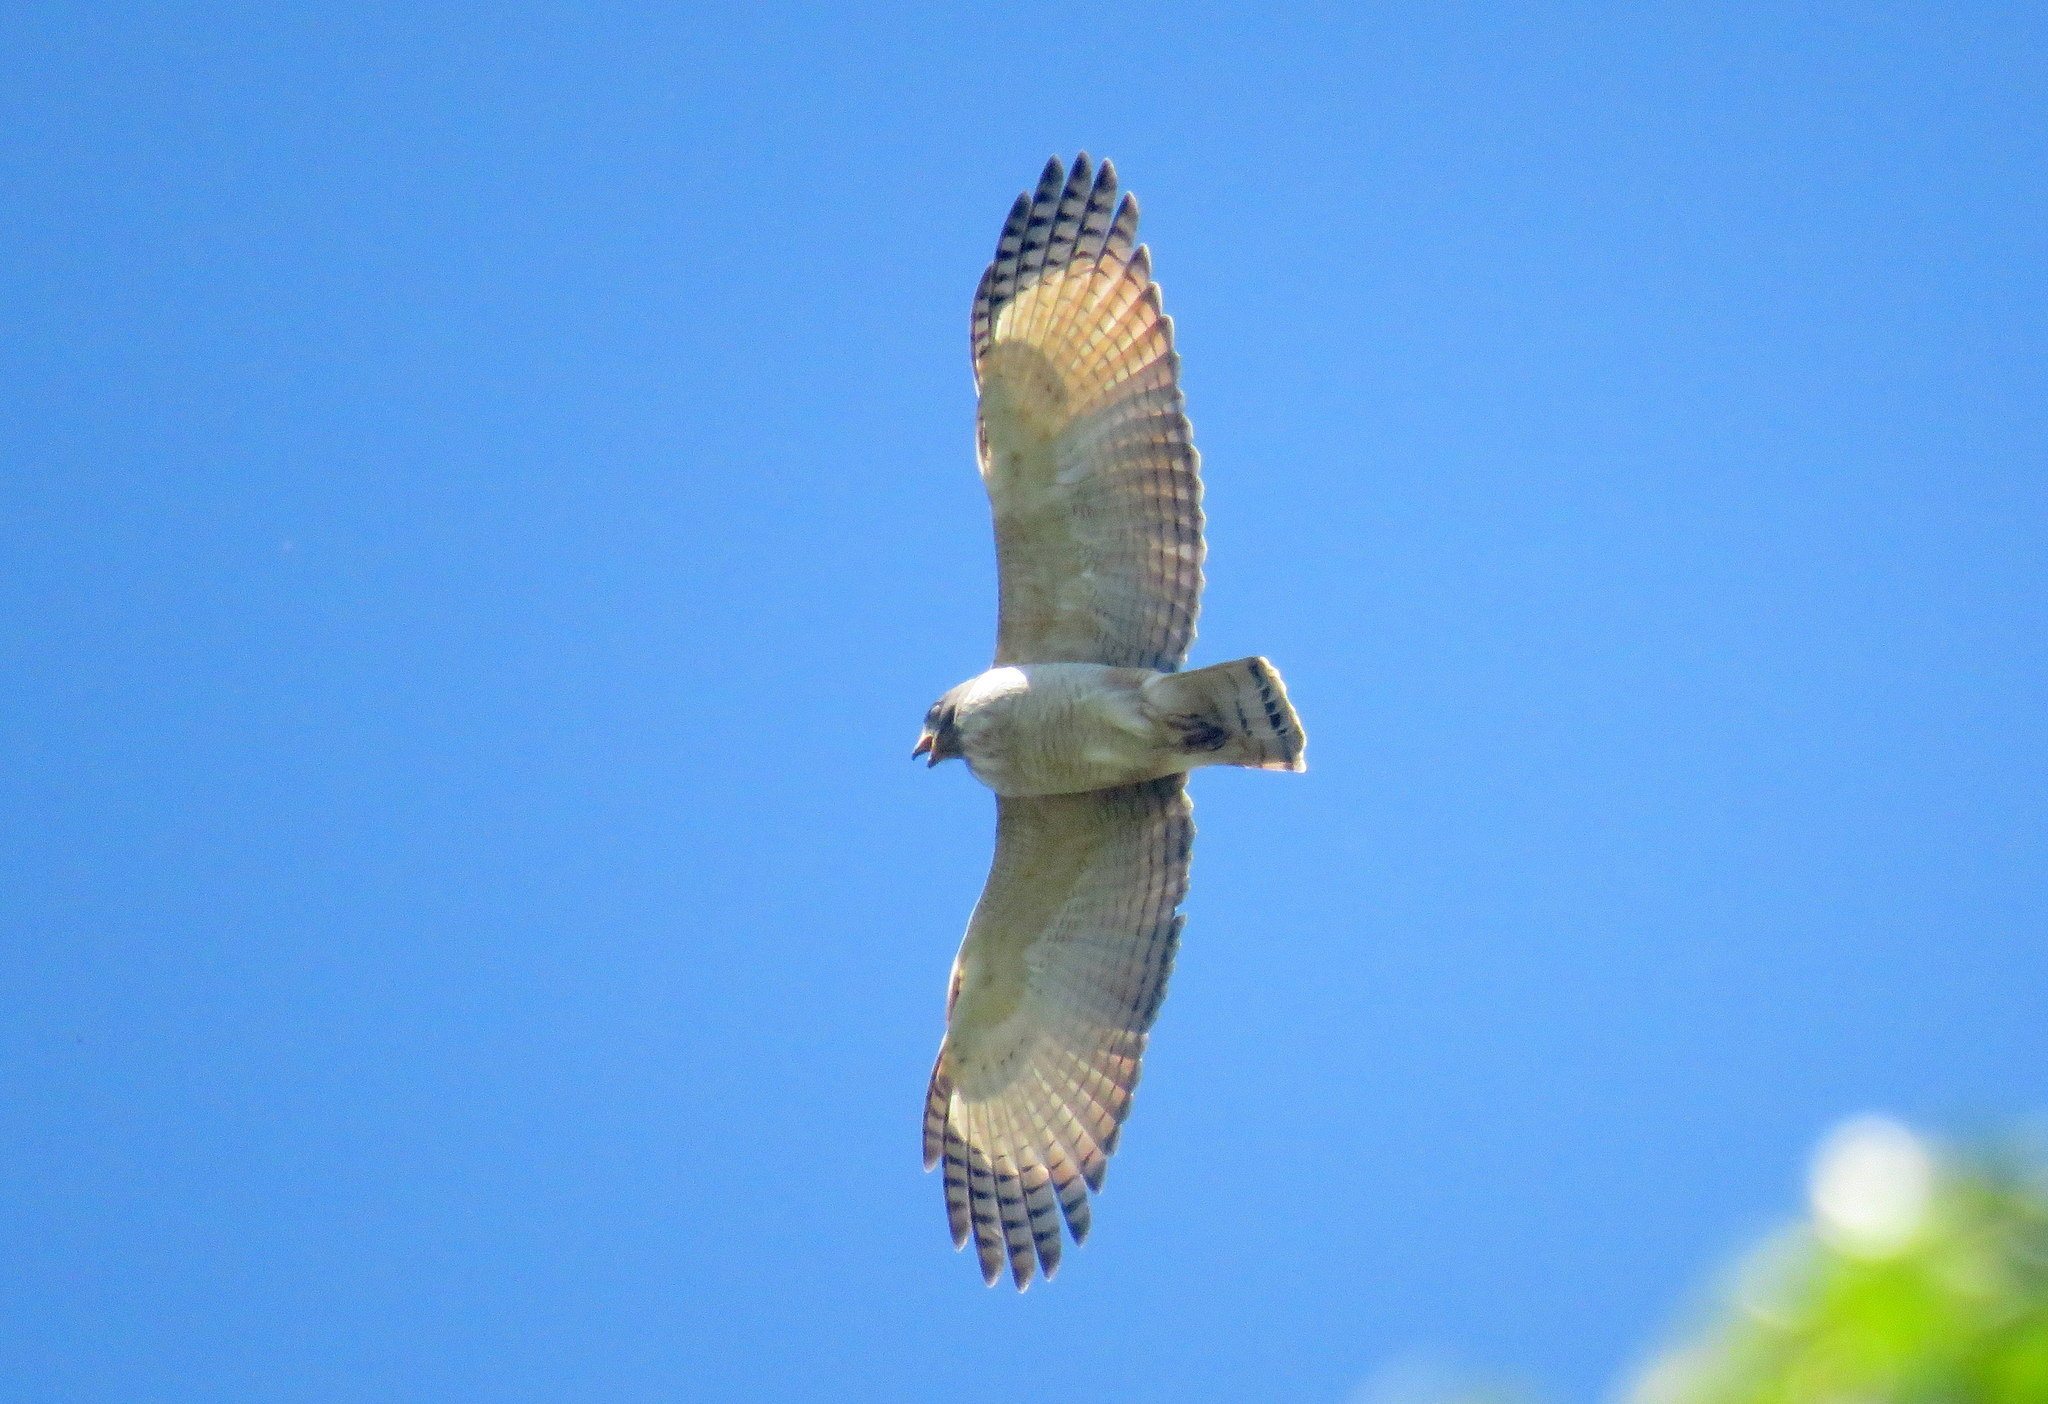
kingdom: Animalia
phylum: Chordata
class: Aves
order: Accipitriformes
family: Accipitridae
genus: Rupornis
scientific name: Rupornis magnirostris
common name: Roadside hawk
